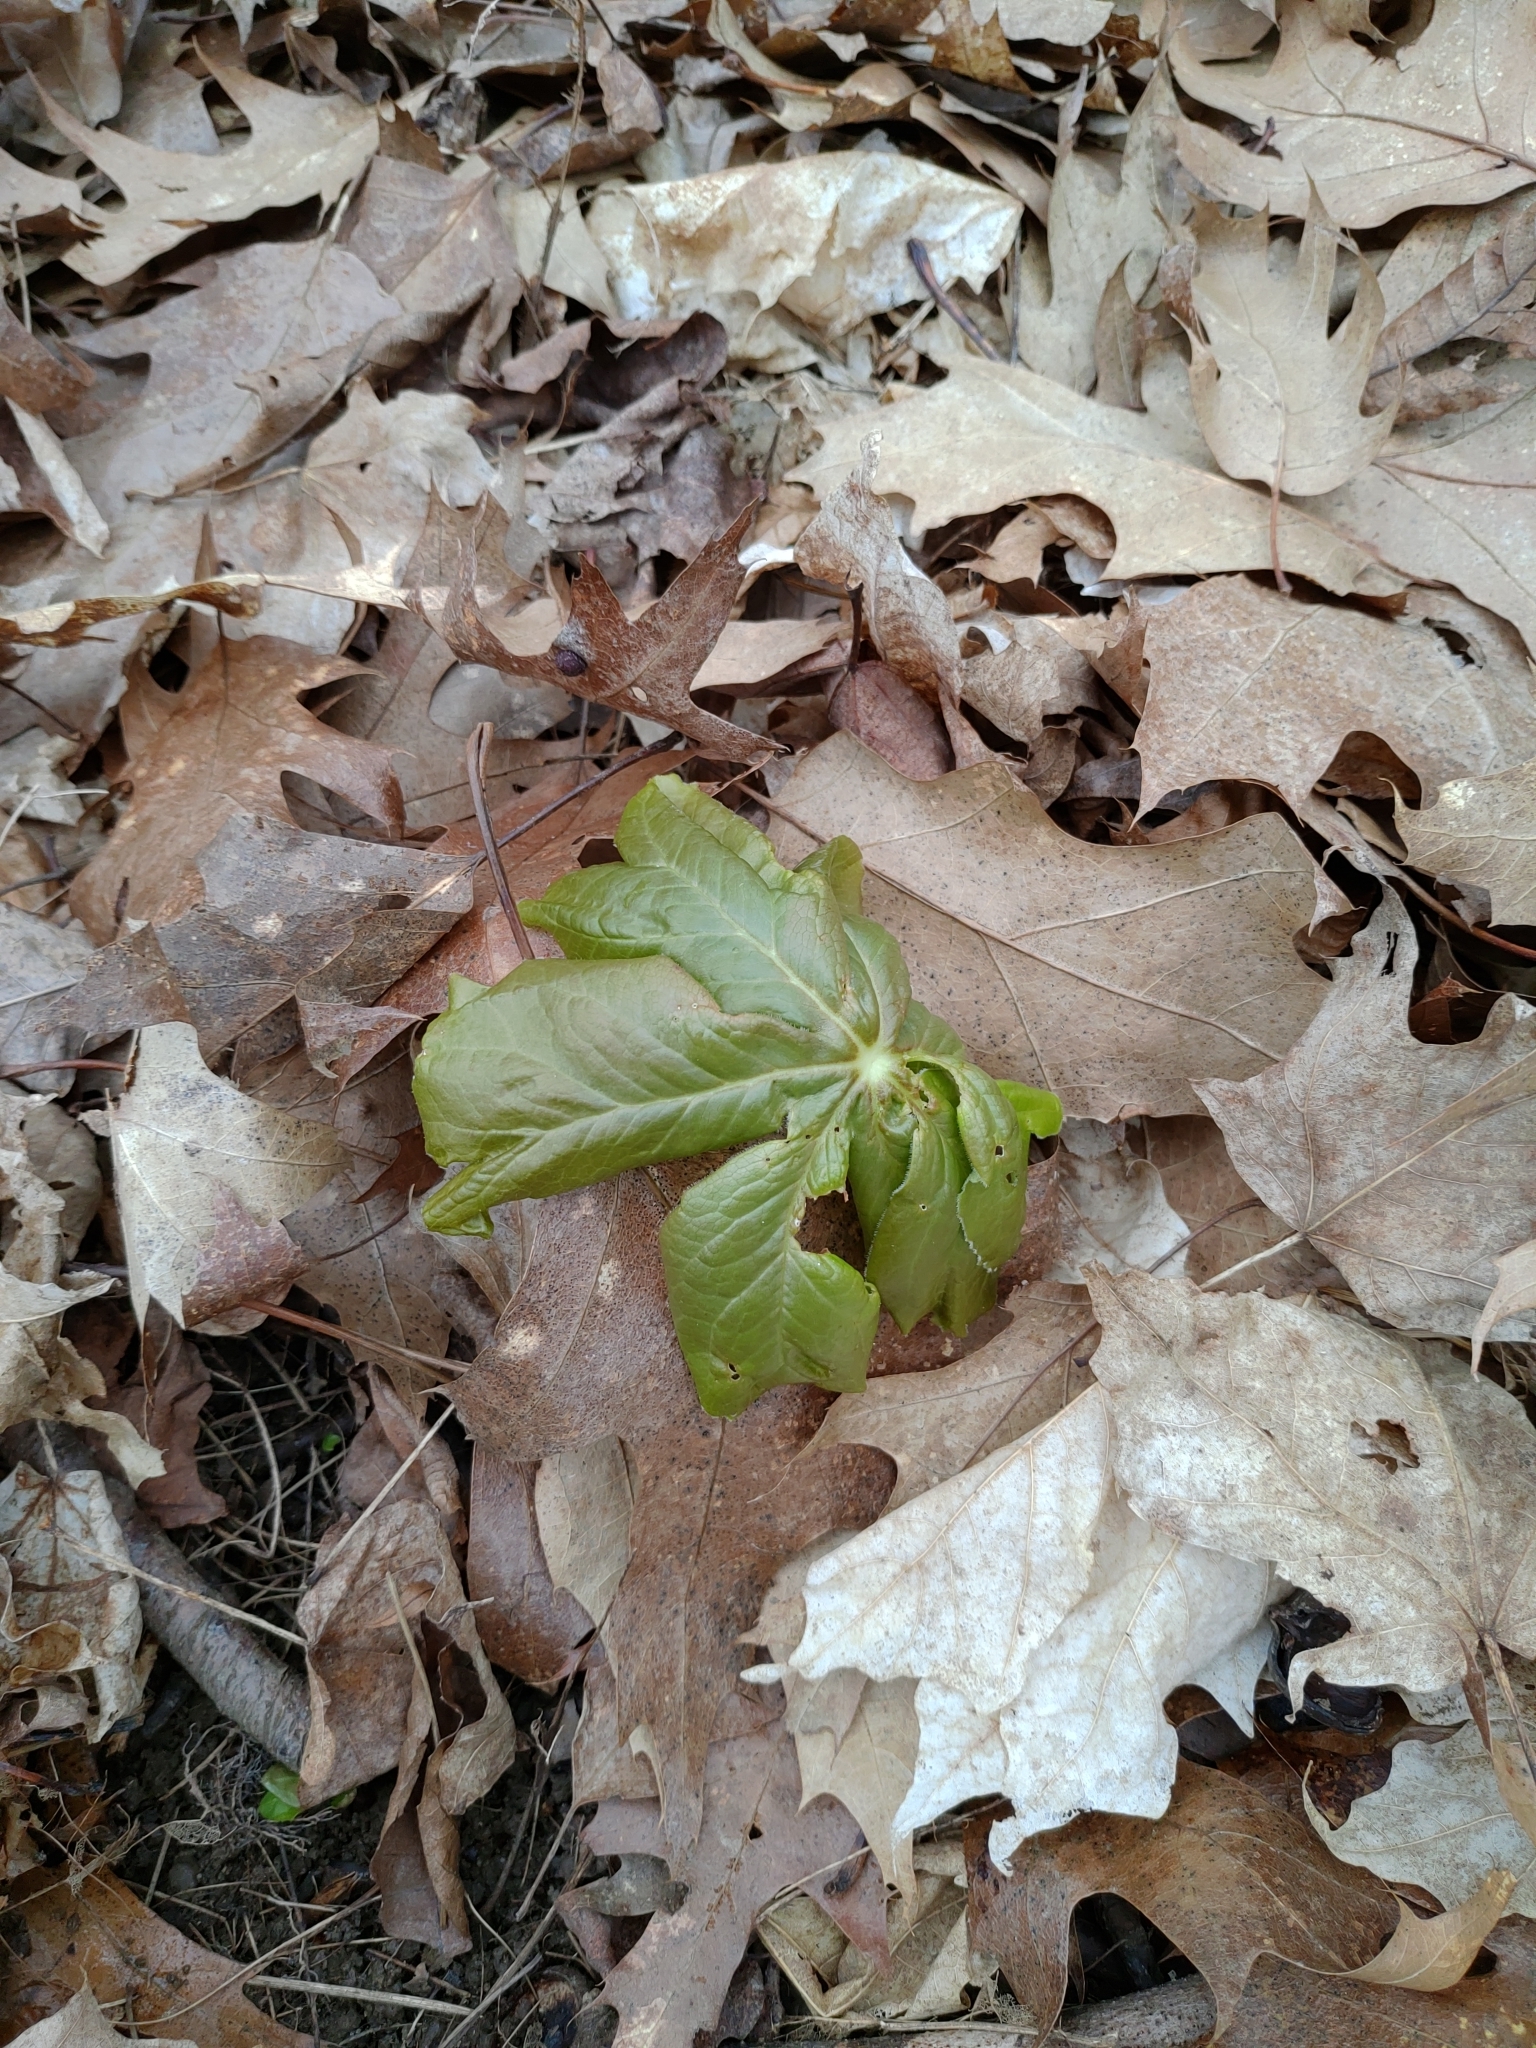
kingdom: Plantae
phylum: Tracheophyta
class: Magnoliopsida
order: Ranunculales
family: Berberidaceae
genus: Podophyllum
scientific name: Podophyllum peltatum
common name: Wild mandrake
